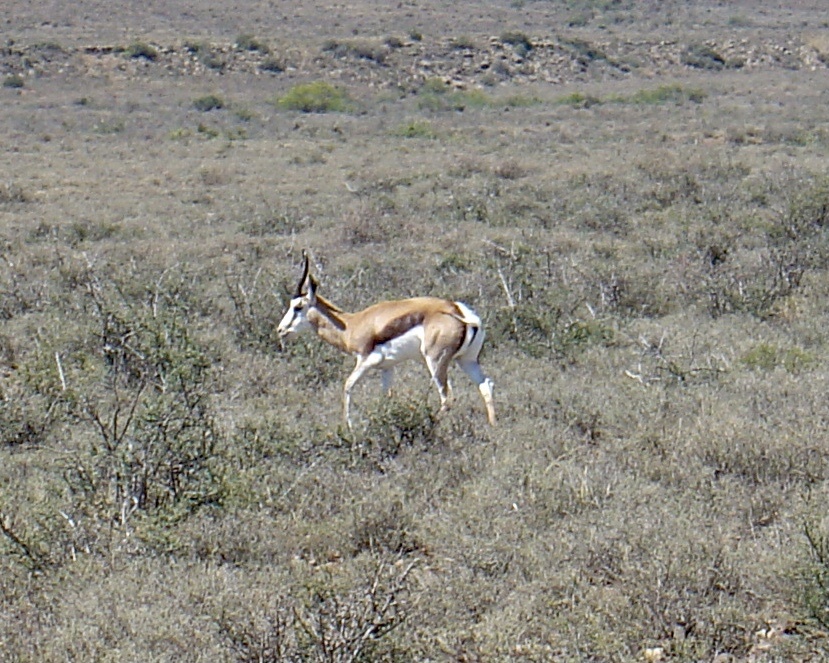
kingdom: Animalia
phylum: Chordata
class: Mammalia
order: Artiodactyla
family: Bovidae
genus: Antidorcas
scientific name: Antidorcas marsupialis
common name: Springbok
